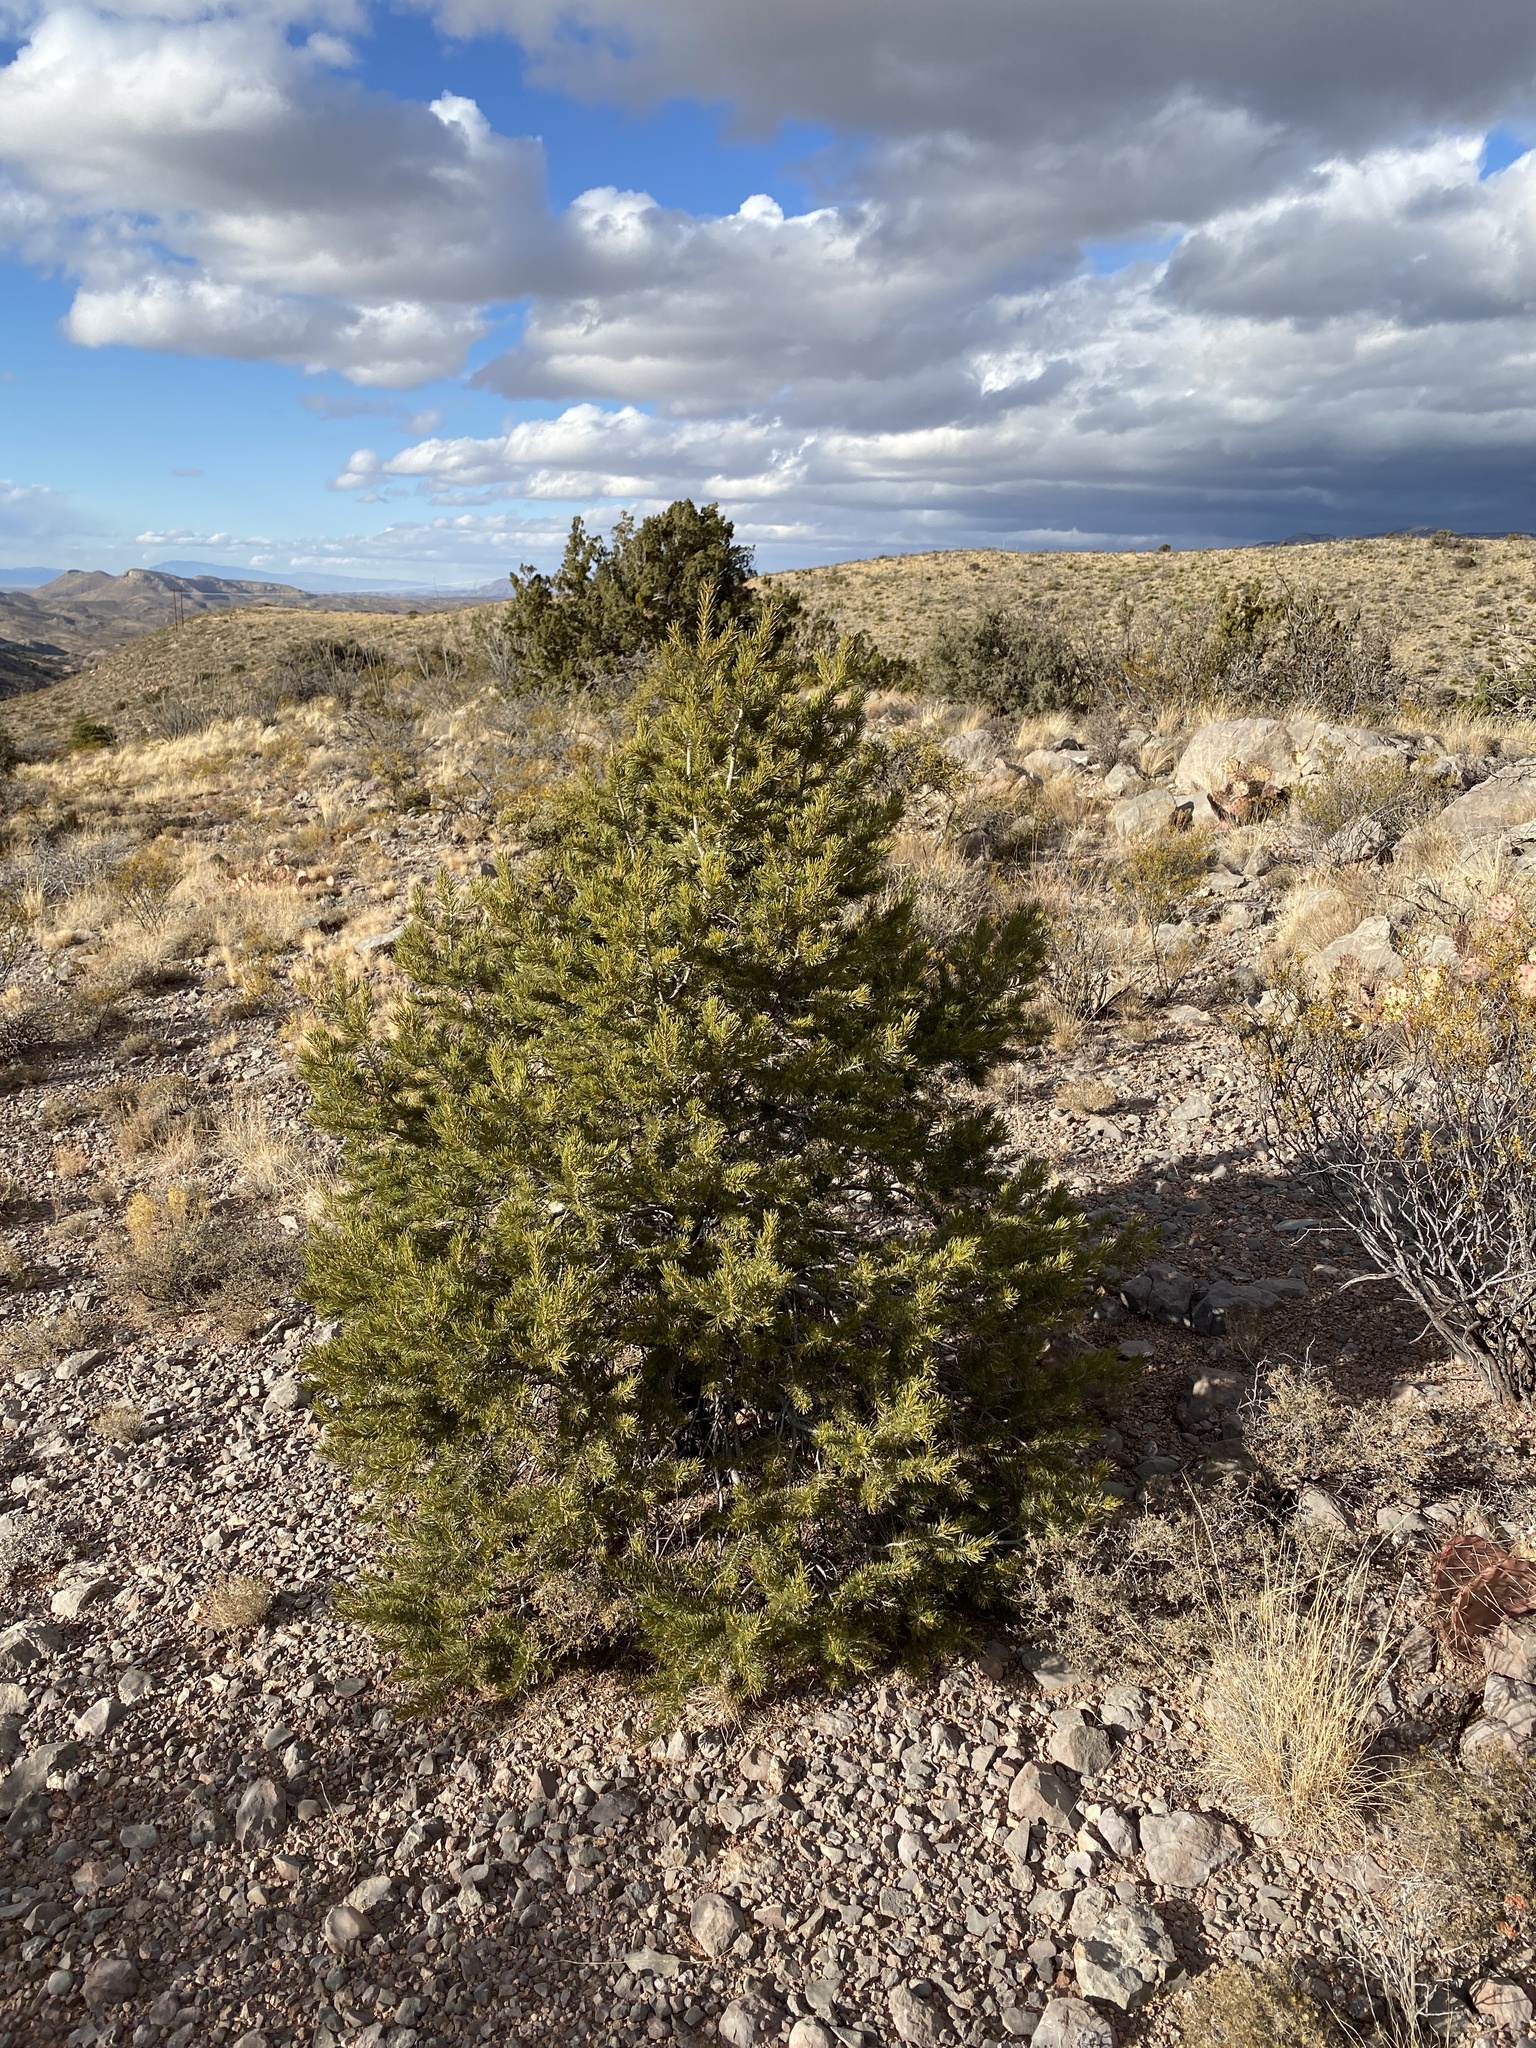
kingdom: Plantae
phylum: Tracheophyta
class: Pinopsida
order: Pinales
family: Pinaceae
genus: Pinus
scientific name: Pinus edulis
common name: Colorado pinyon
